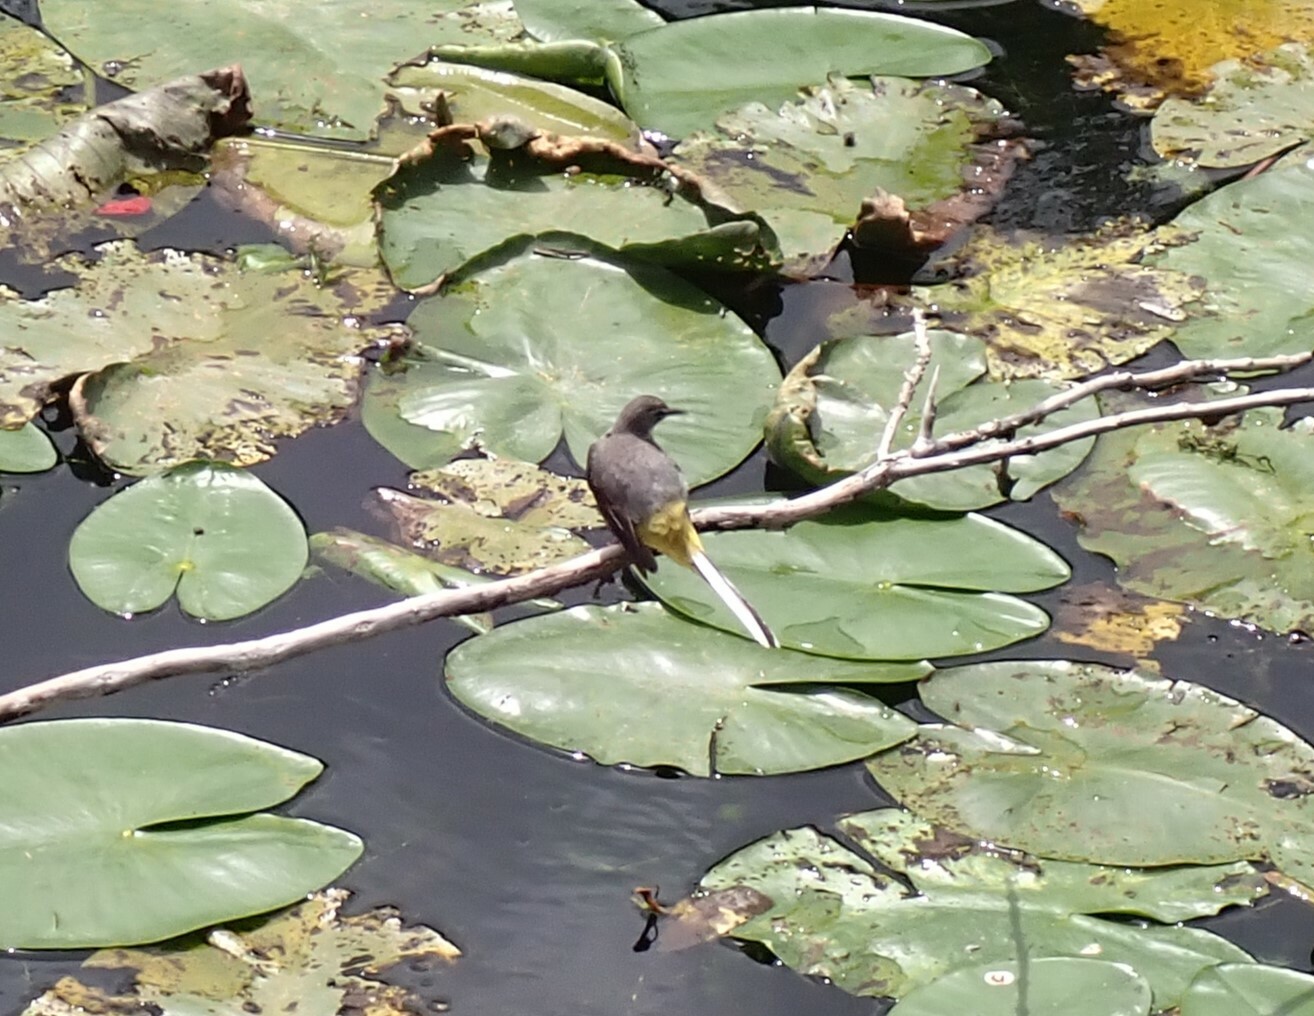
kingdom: Animalia
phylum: Chordata
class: Aves
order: Passeriformes
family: Motacillidae
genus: Motacilla
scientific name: Motacilla cinerea
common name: Grey wagtail
